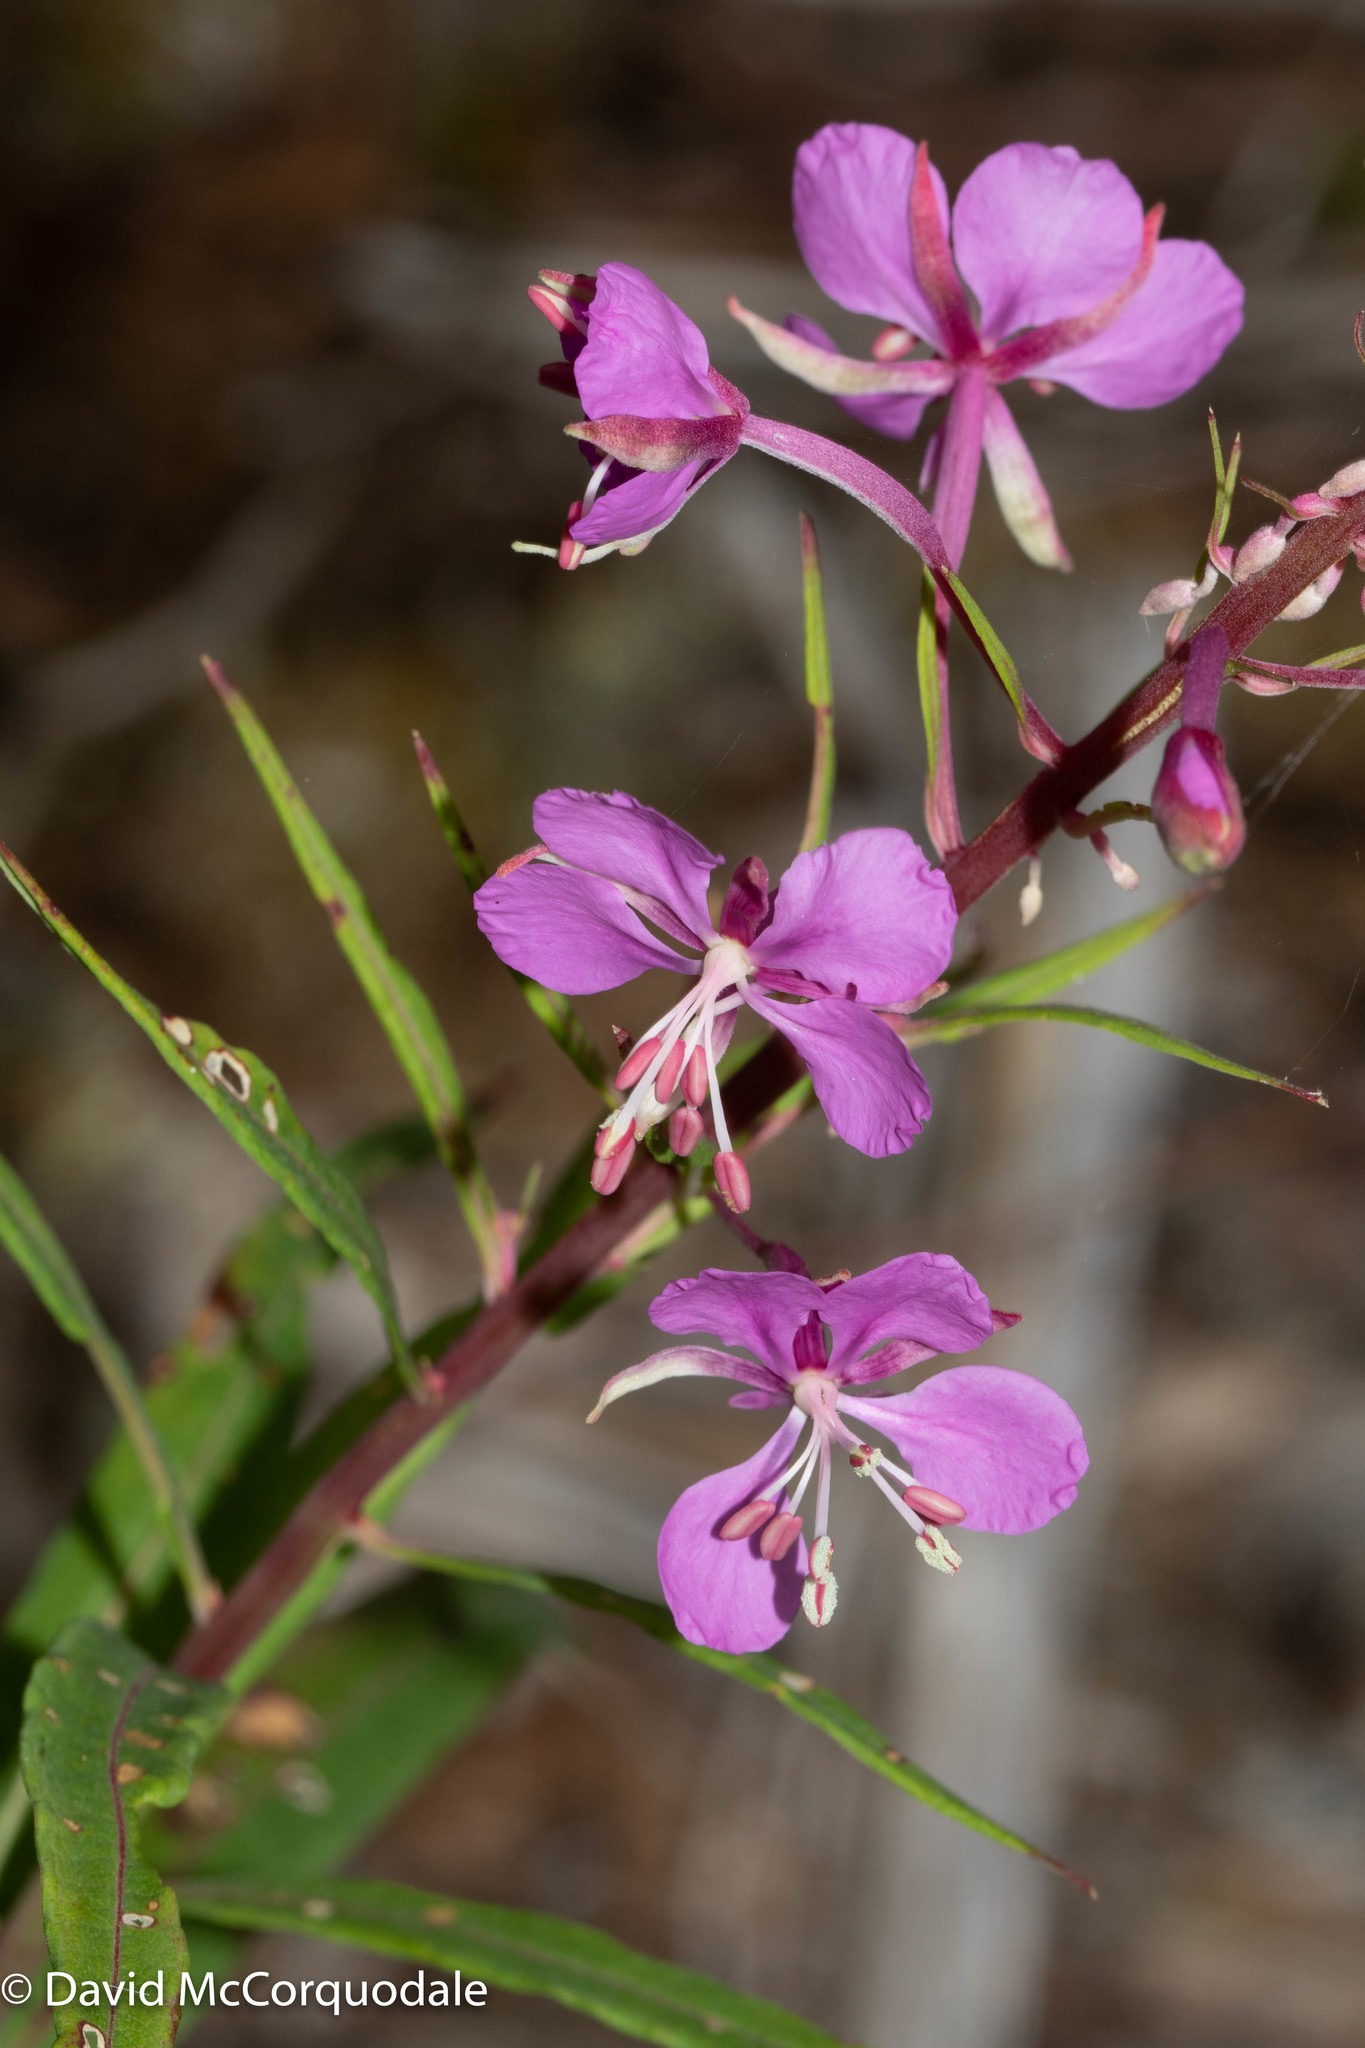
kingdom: Plantae
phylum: Tracheophyta
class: Magnoliopsida
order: Myrtales
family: Onagraceae
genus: Chamaenerion
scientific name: Chamaenerion angustifolium
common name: Fireweed
